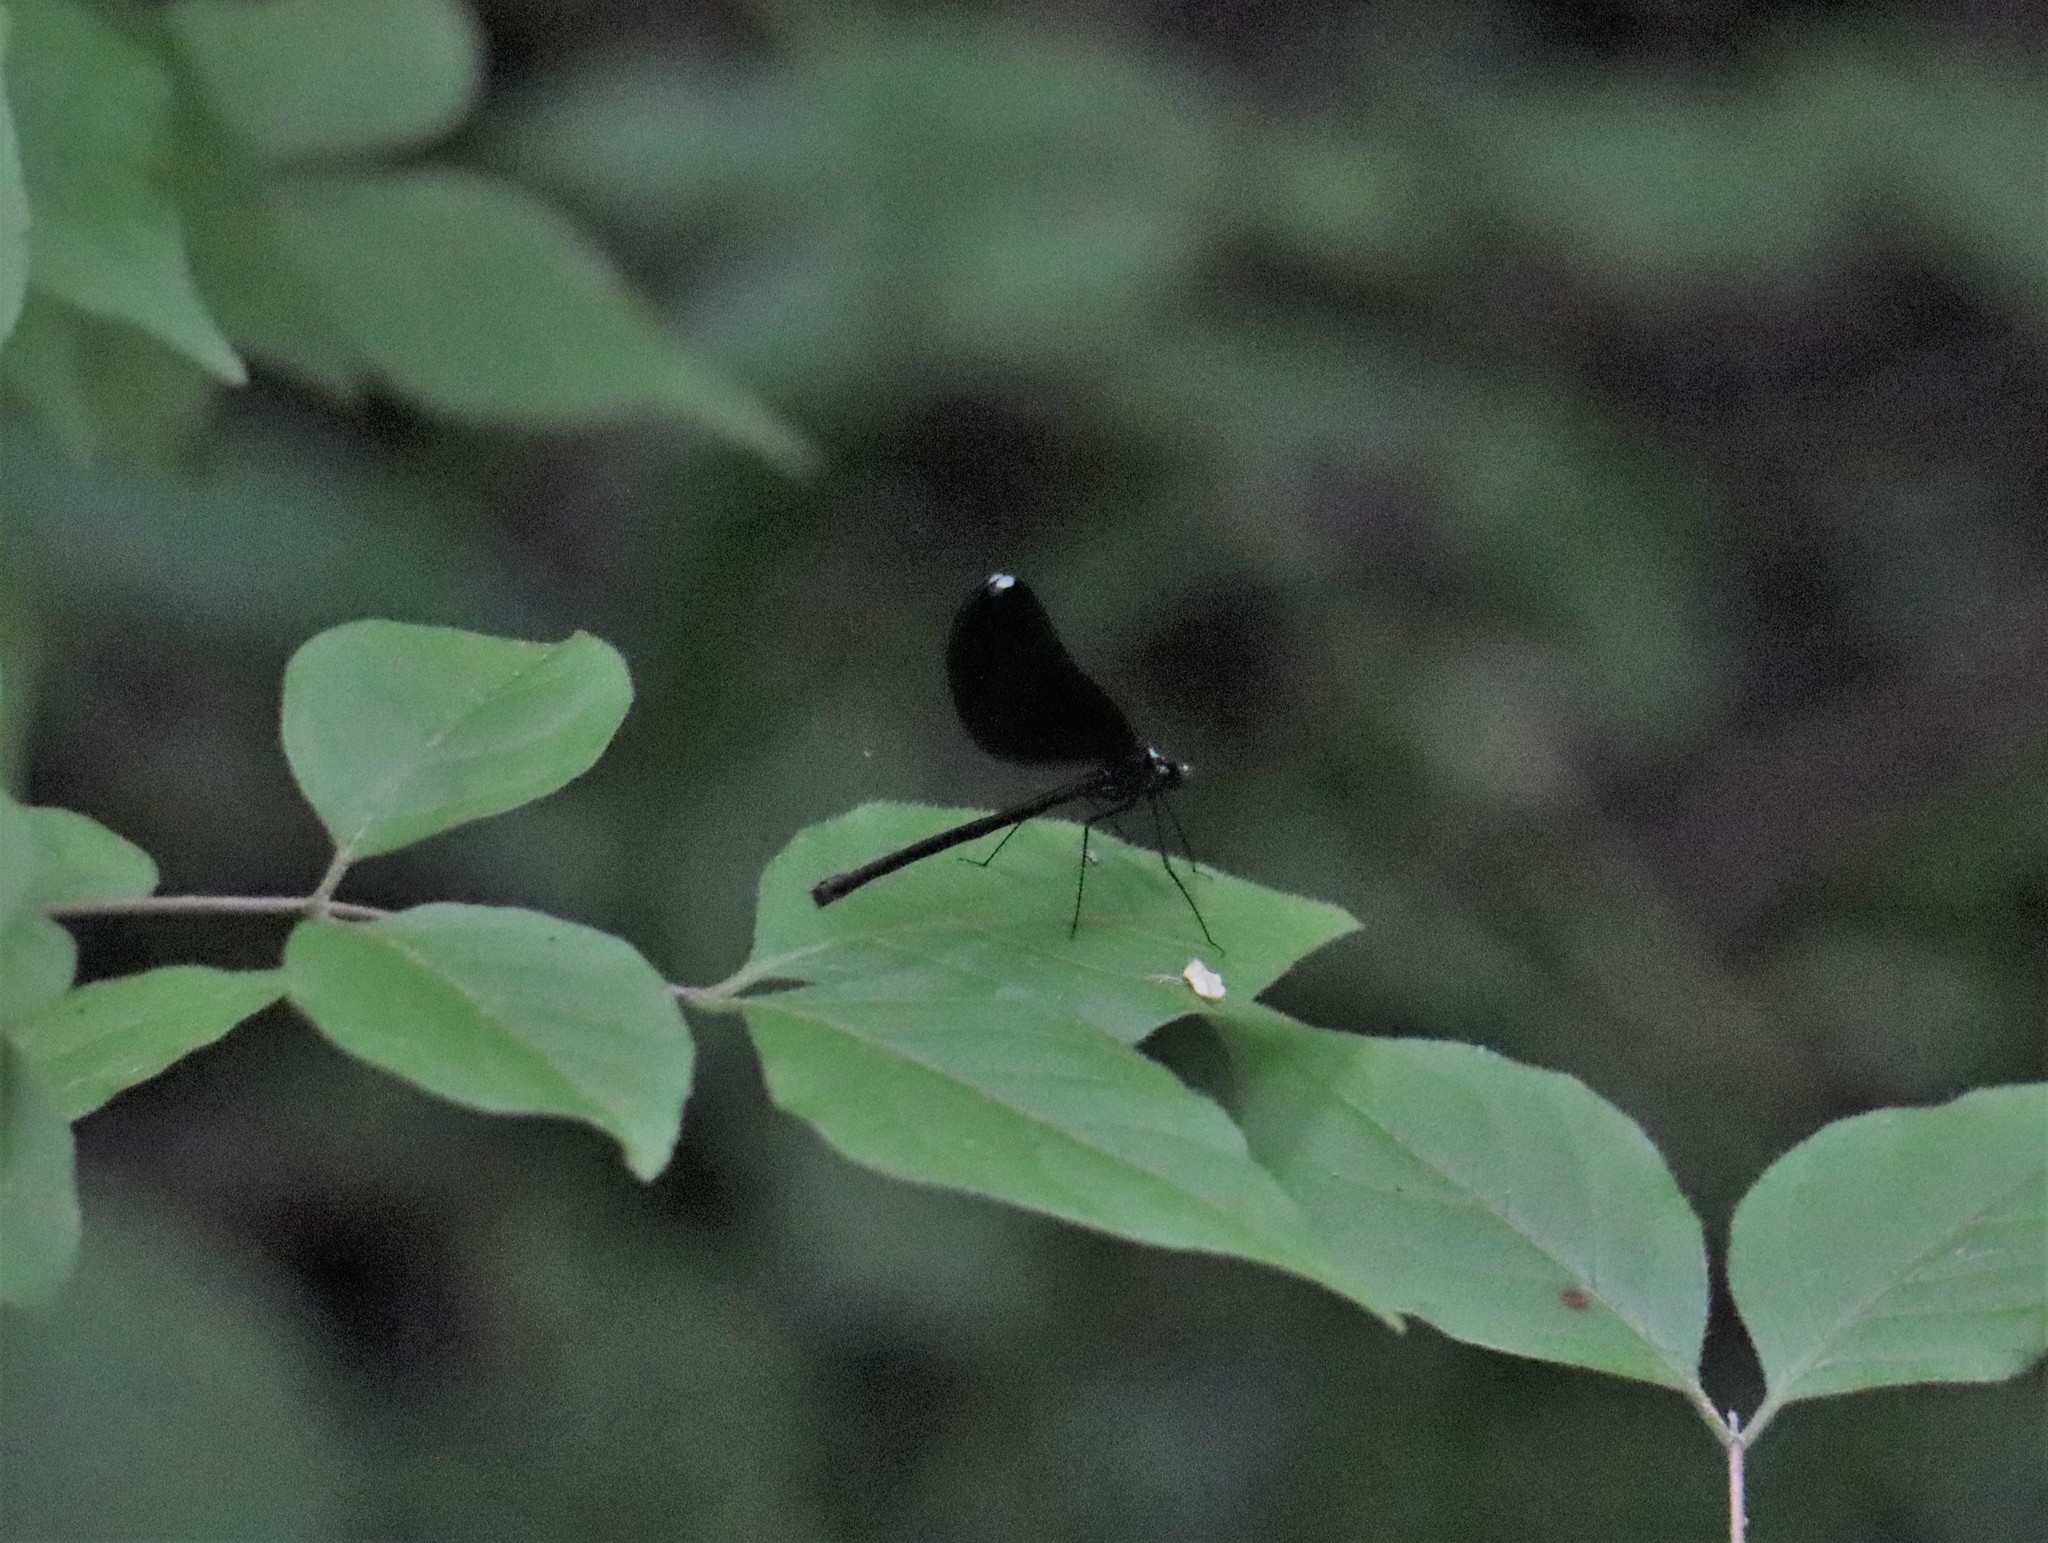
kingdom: Animalia
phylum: Arthropoda
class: Insecta
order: Odonata
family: Calopterygidae
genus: Calopteryx
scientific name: Calopteryx maculata
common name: Ebony jewelwing
